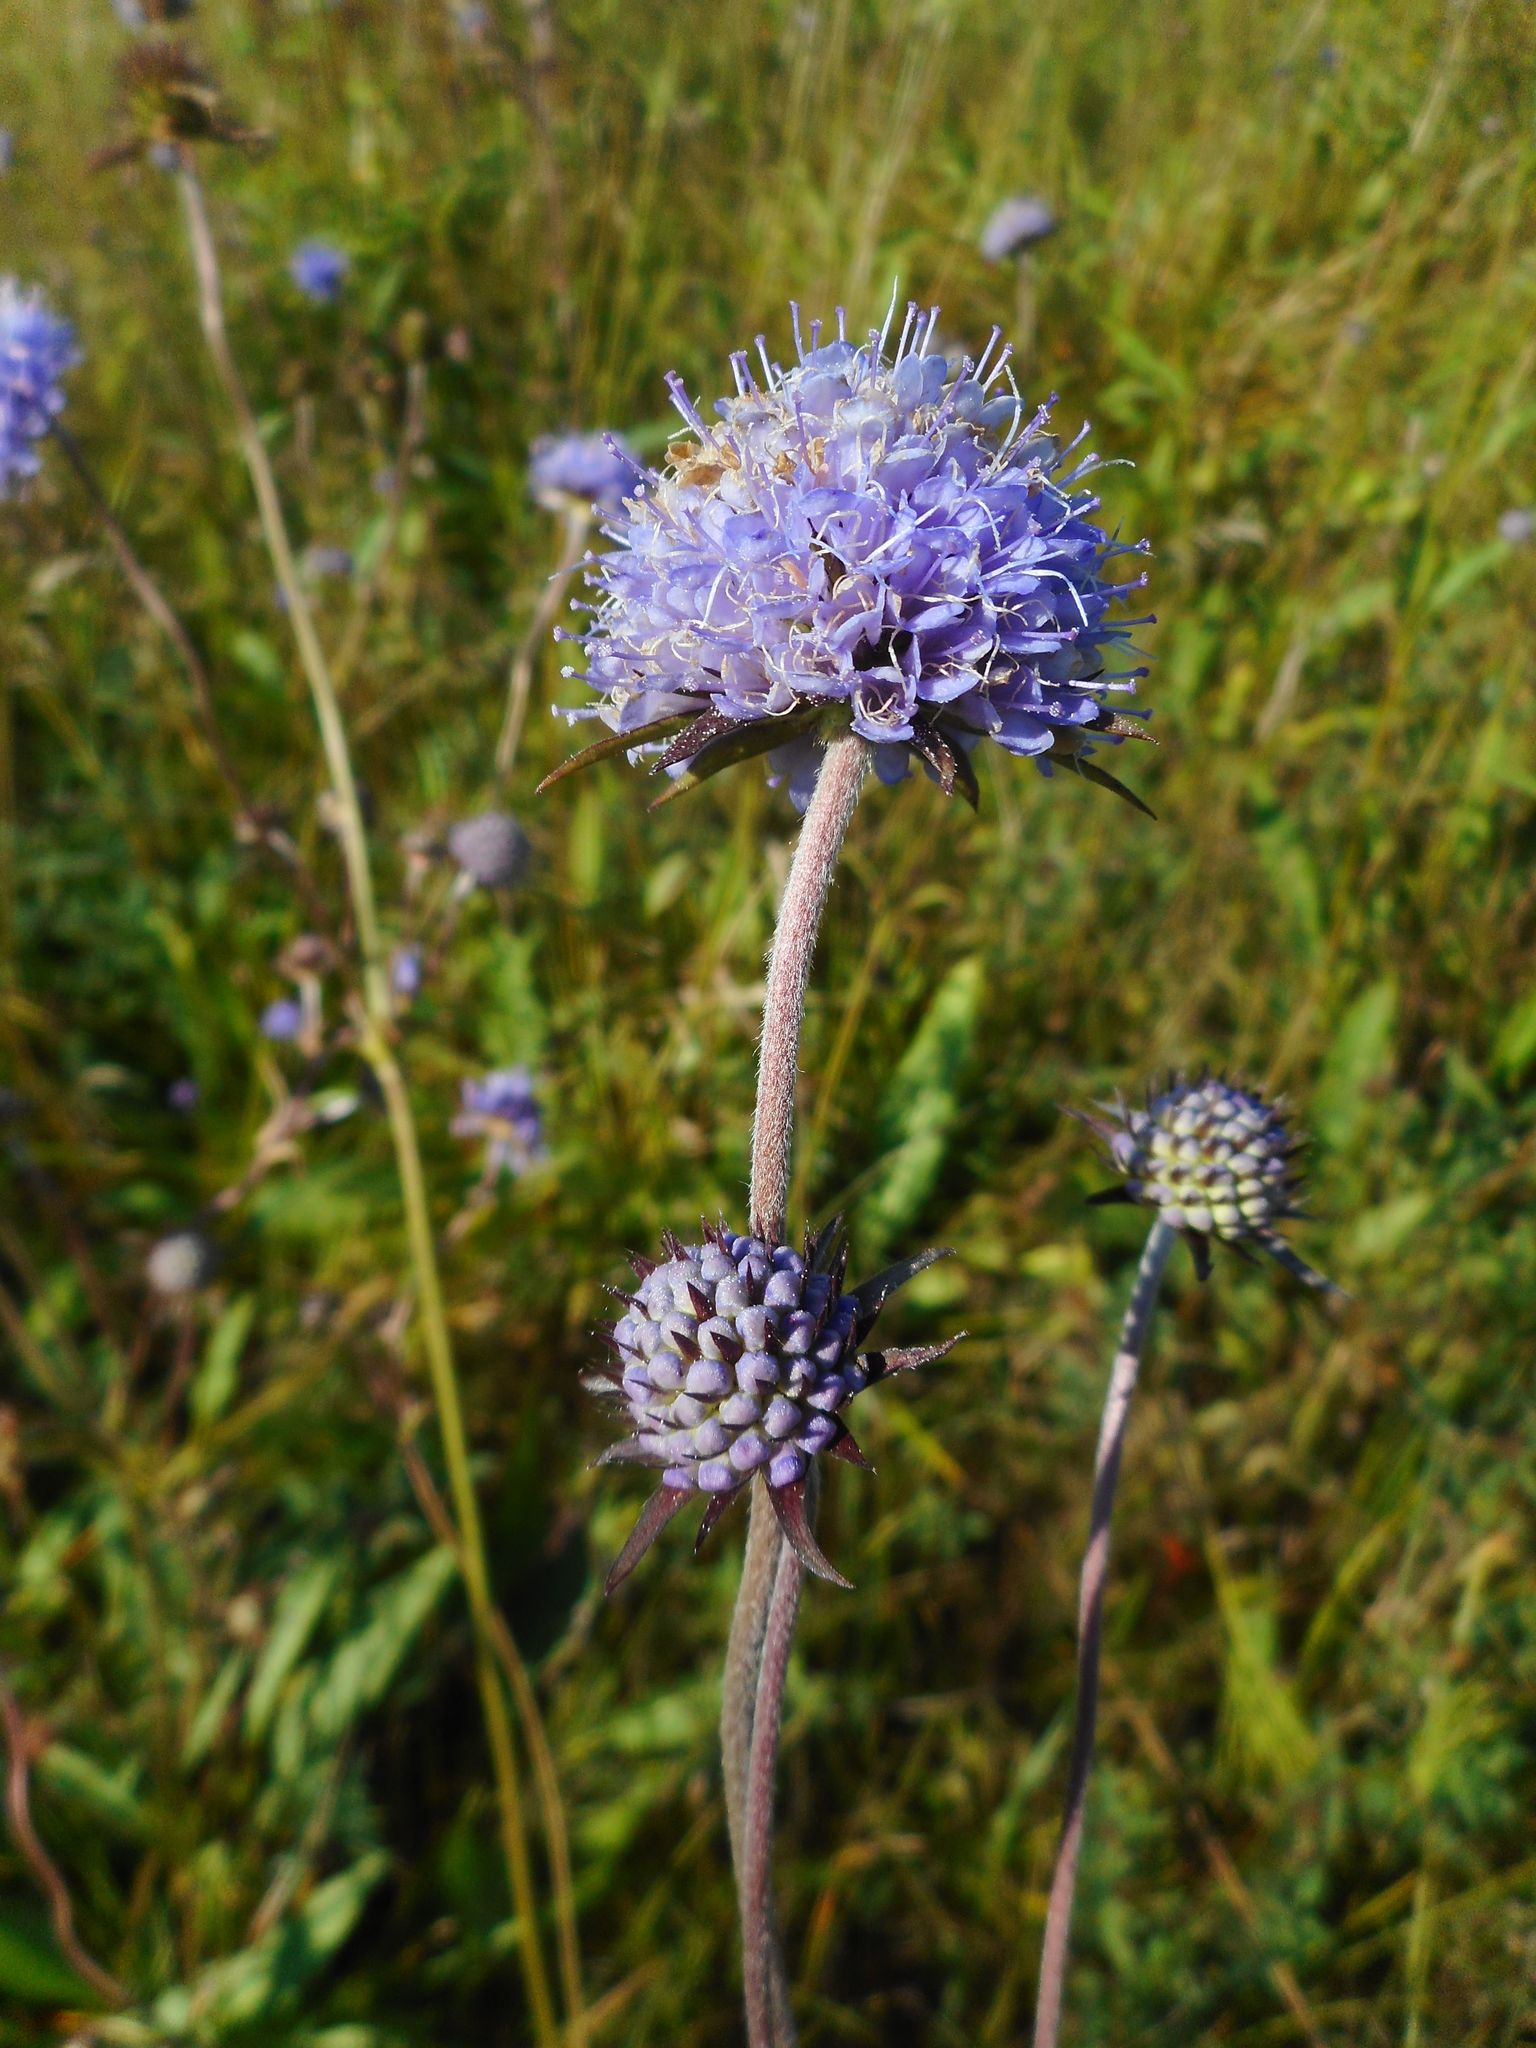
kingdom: Plantae
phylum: Tracheophyta
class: Magnoliopsida
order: Dipsacales
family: Caprifoliaceae
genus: Succisa
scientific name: Succisa pratensis
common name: Devil's-bit
